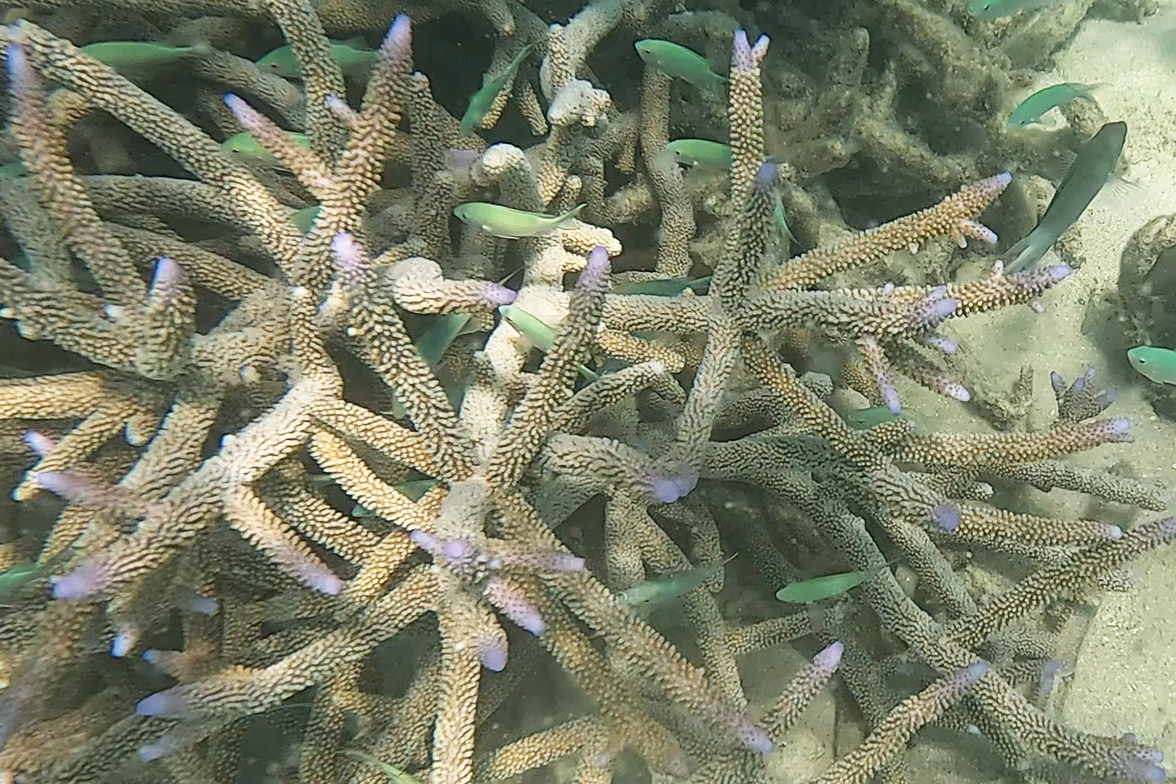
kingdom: Animalia
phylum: Cnidaria
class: Anthozoa
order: Scleractinia
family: Acroporidae
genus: Acropora
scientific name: Acropora muricata
